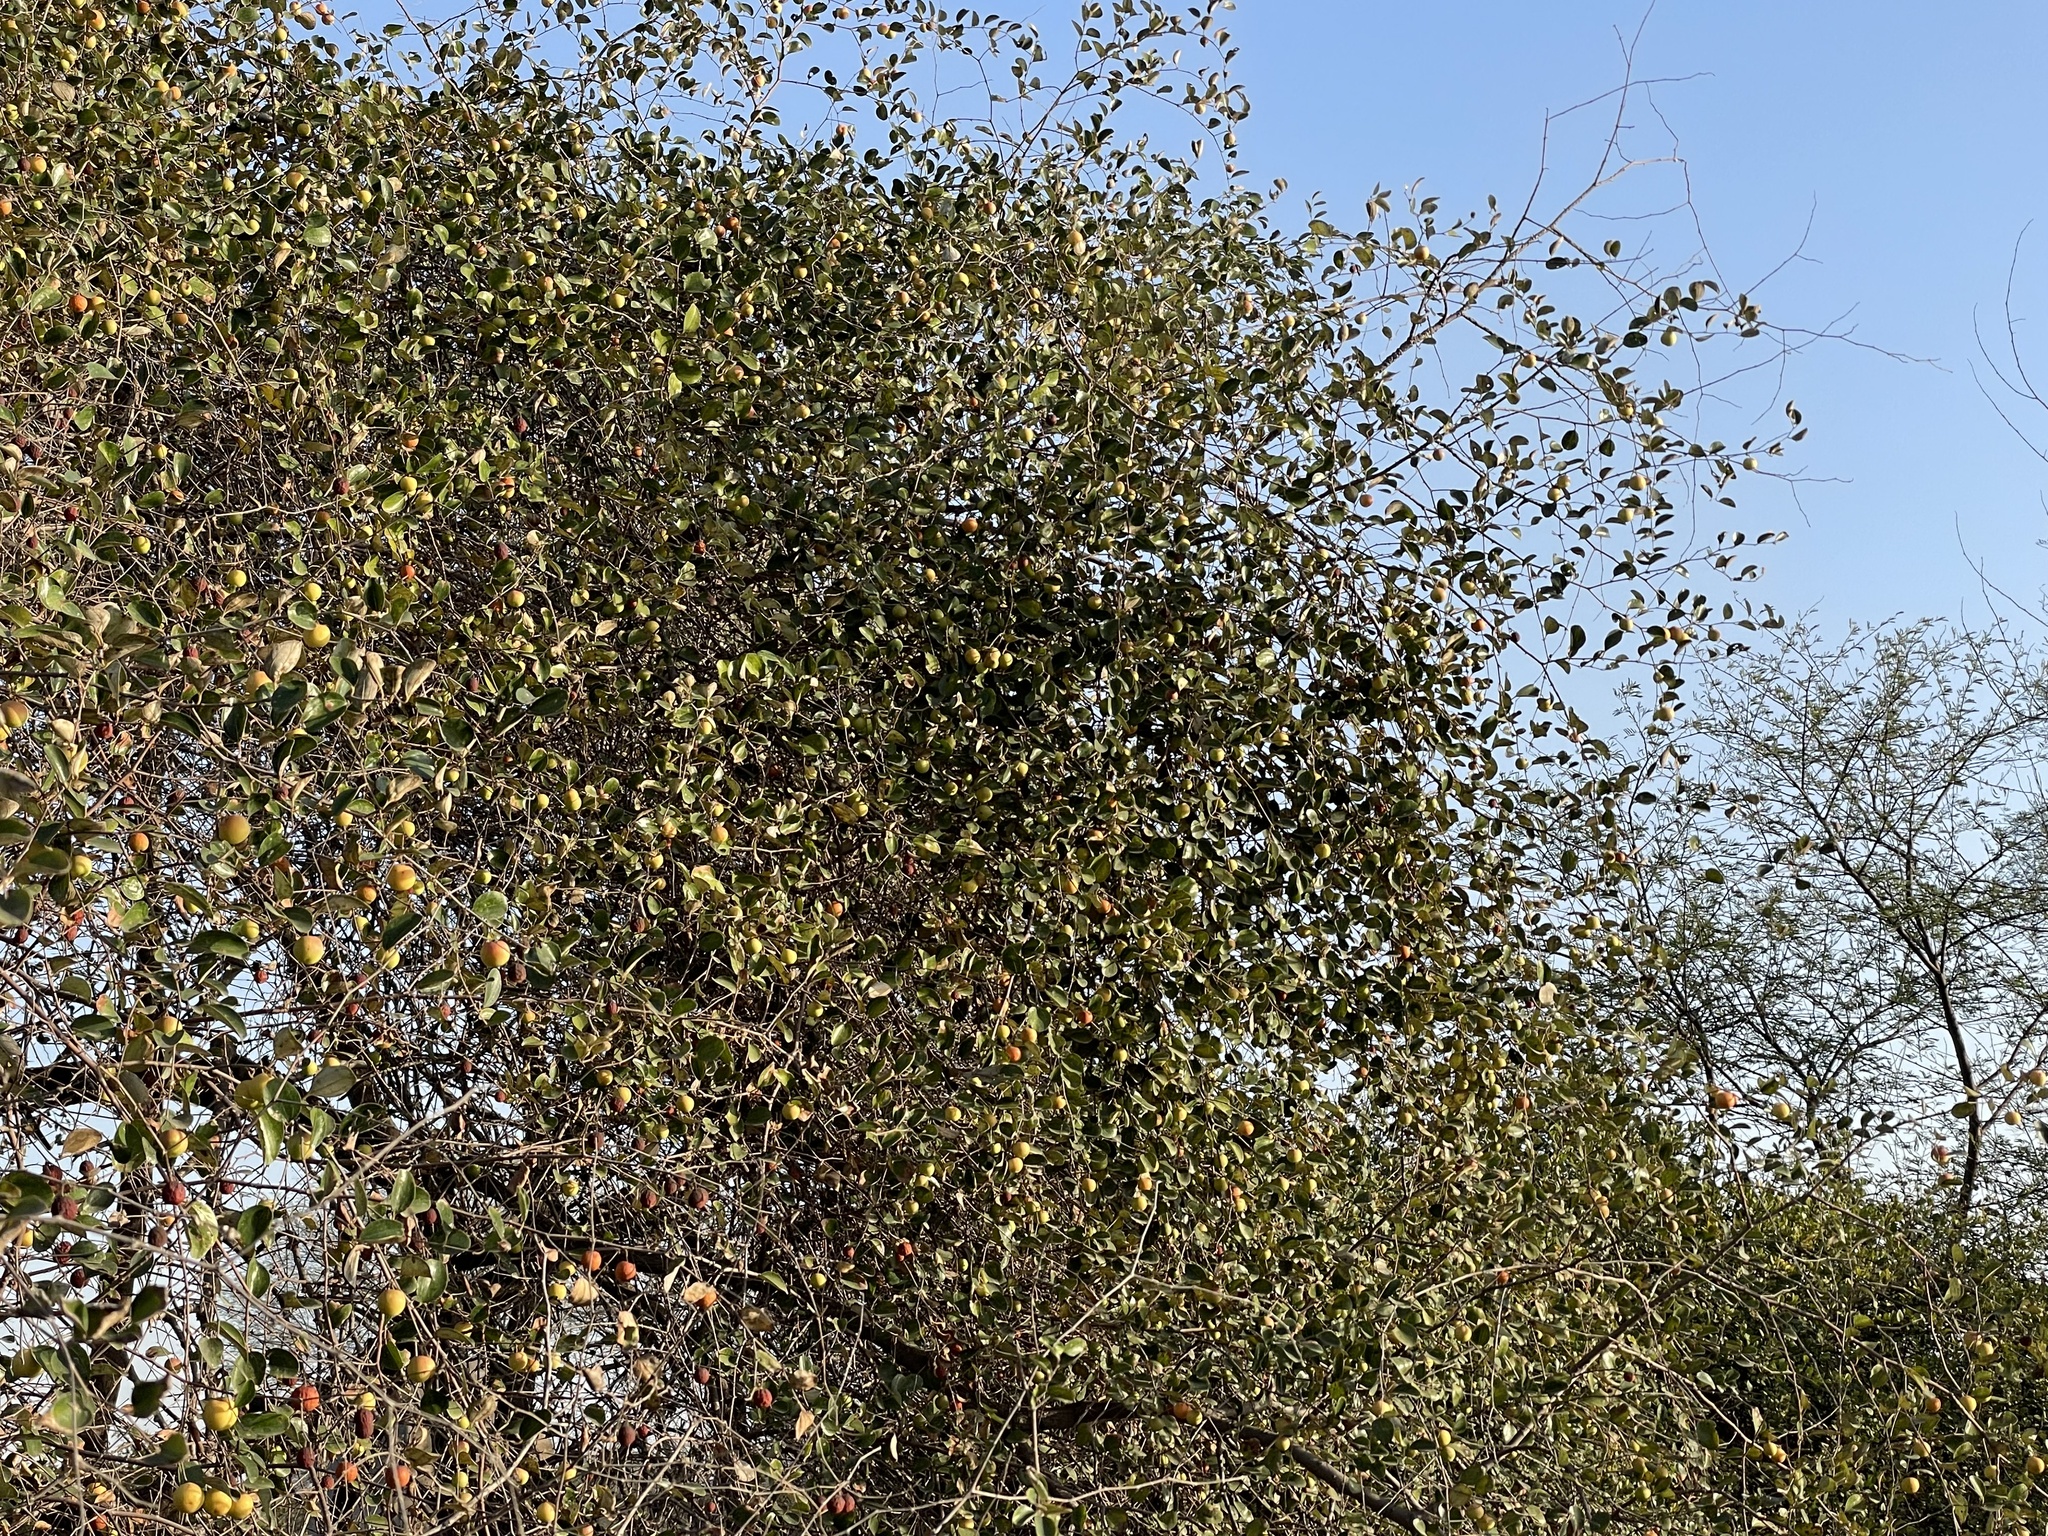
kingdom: Plantae
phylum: Tracheophyta
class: Magnoliopsida
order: Rosales
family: Rhamnaceae
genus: Ziziphus
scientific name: Ziziphus mauritiana
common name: Indian jujube
